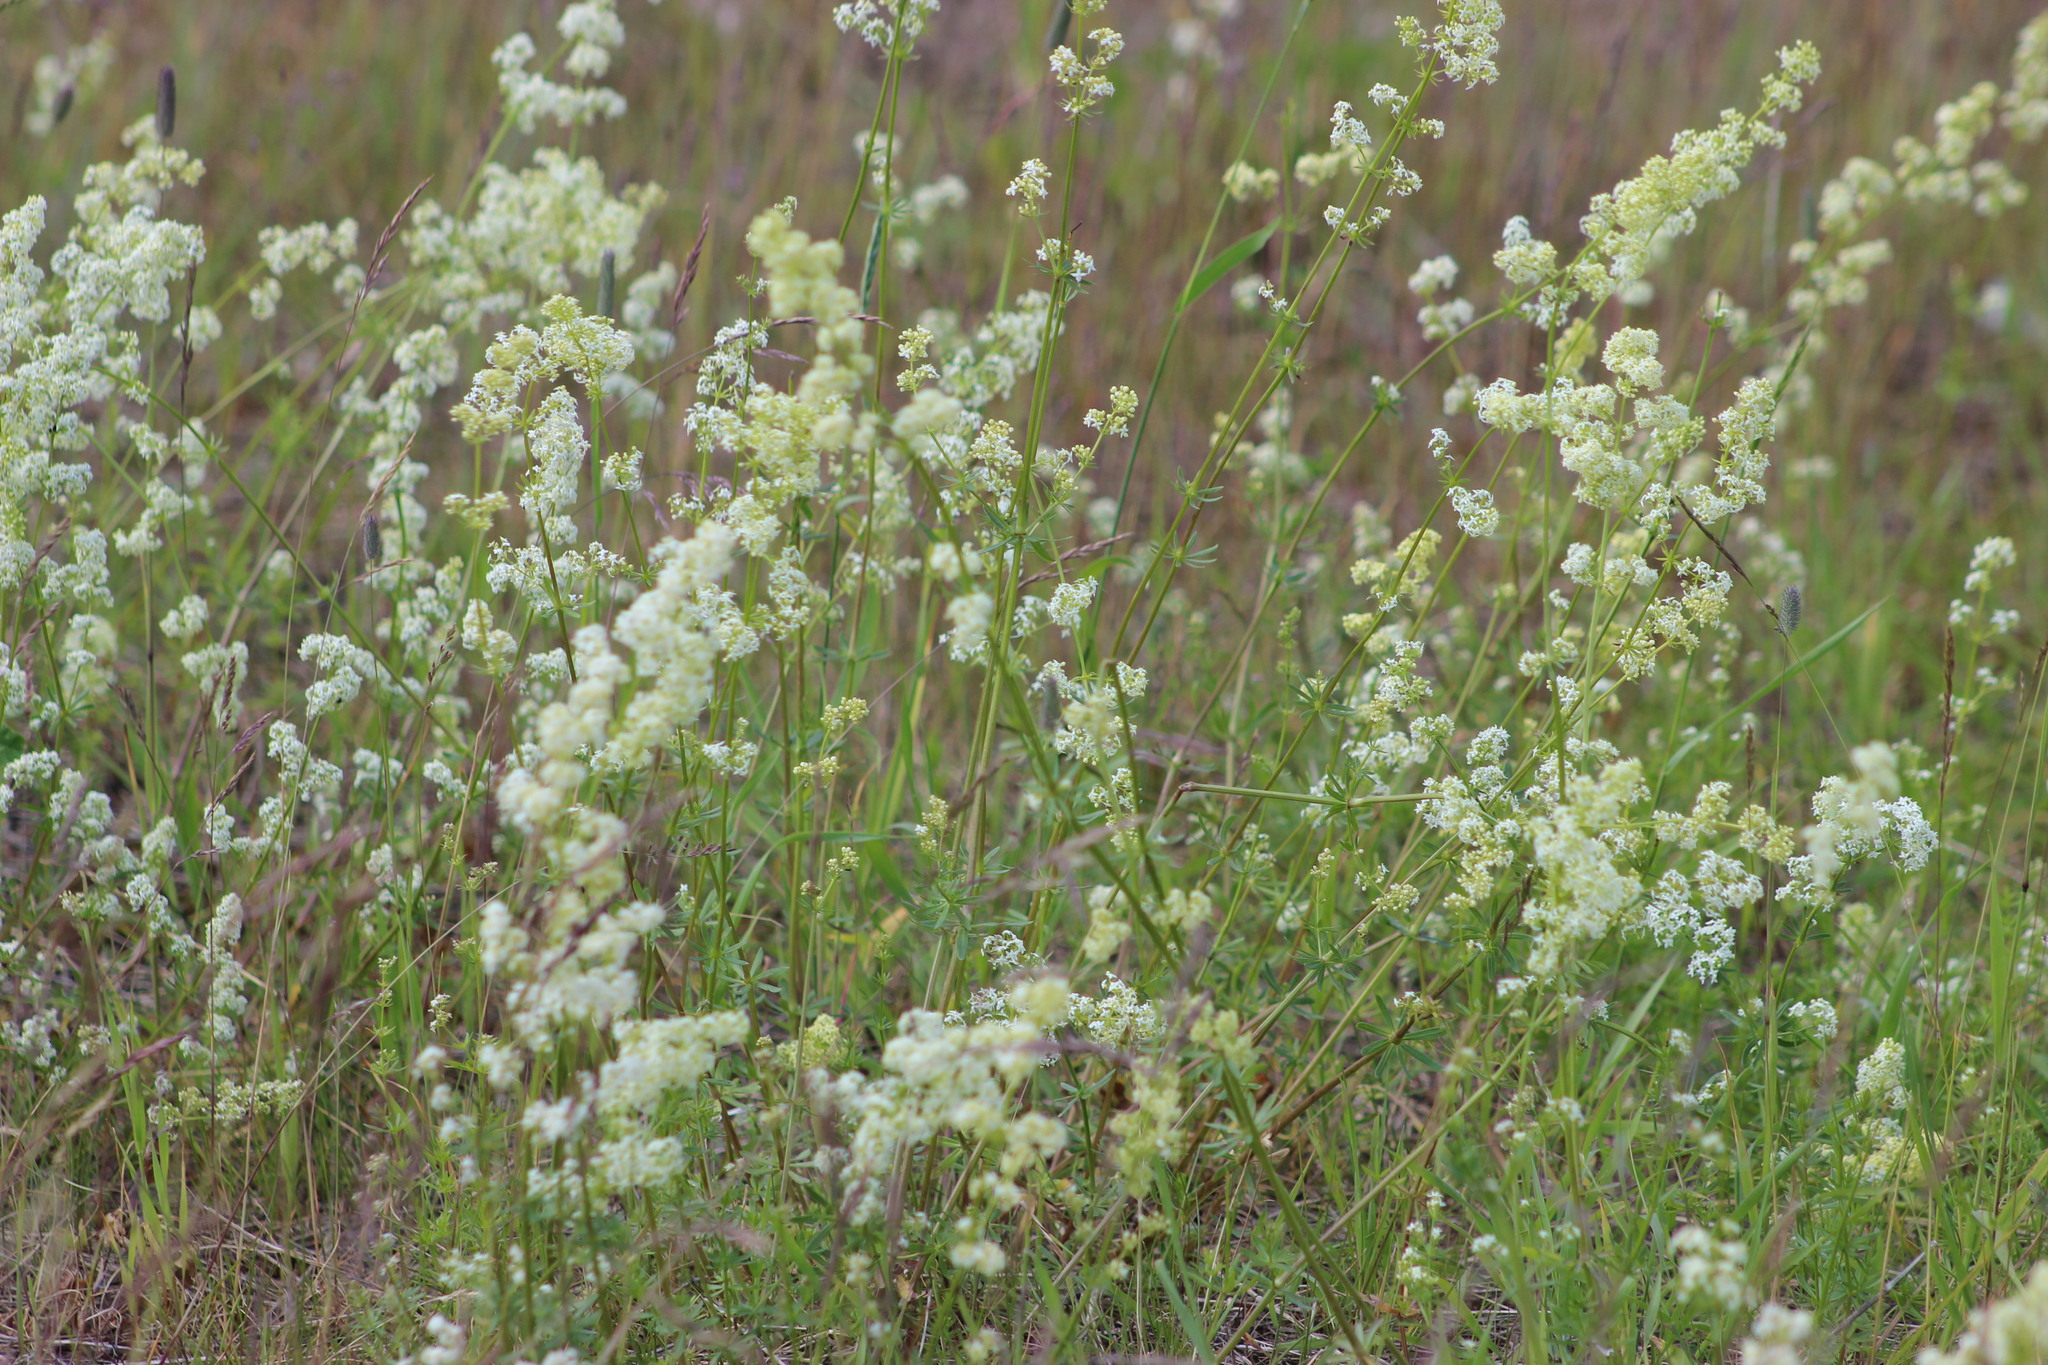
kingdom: Plantae
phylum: Tracheophyta
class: Magnoliopsida
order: Gentianales
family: Rubiaceae
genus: Galium
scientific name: Galium mollugo
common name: Hedge bedstraw
